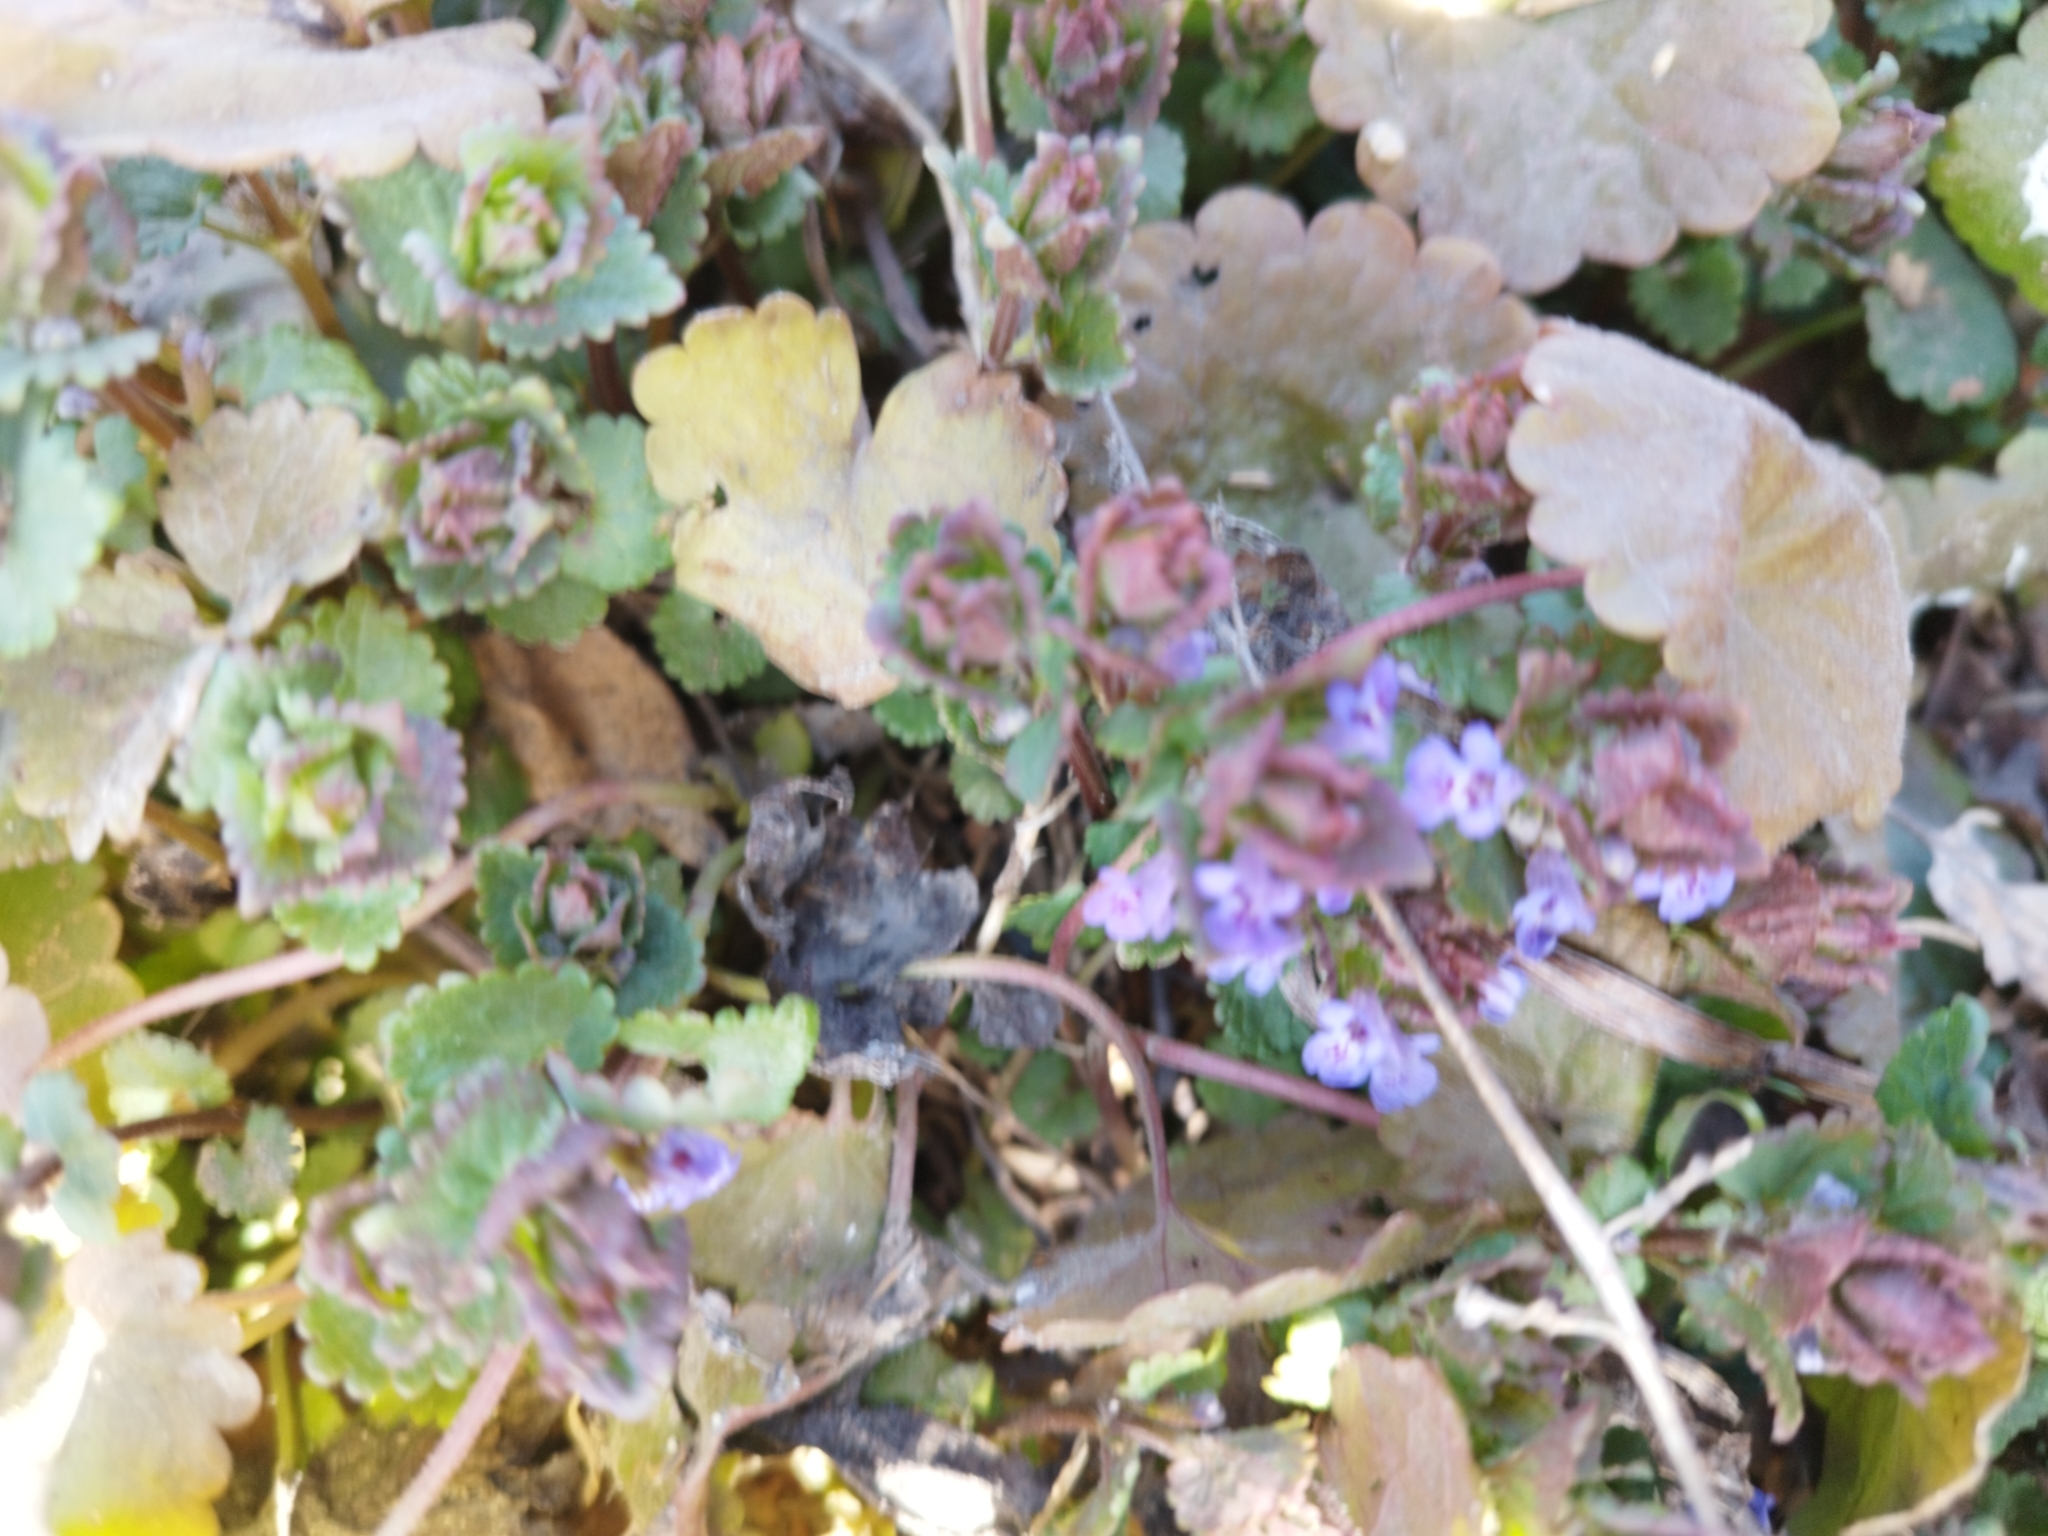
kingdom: Plantae
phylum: Tracheophyta
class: Magnoliopsida
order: Lamiales
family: Lamiaceae
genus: Glechoma
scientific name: Glechoma hederacea
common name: Ground ivy
